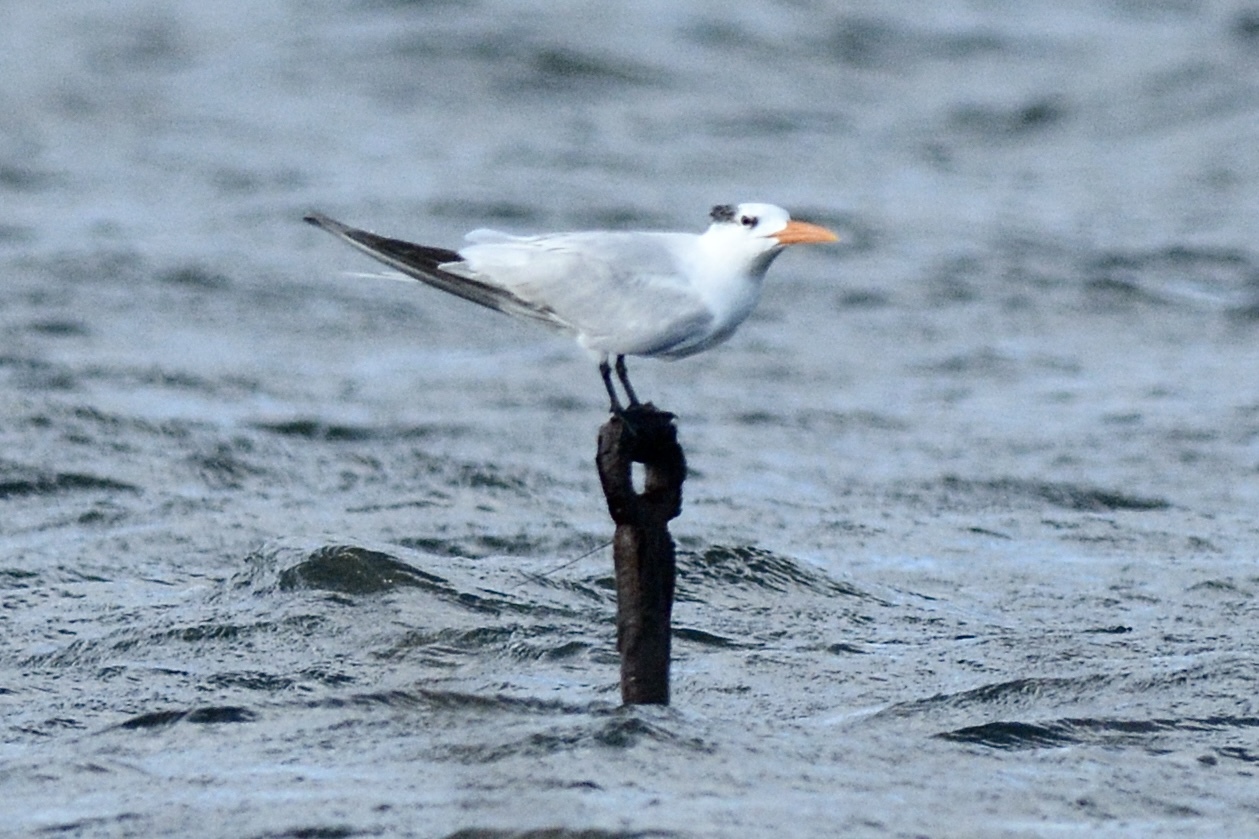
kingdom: Animalia
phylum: Chordata
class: Aves
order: Charadriiformes
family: Laridae
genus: Thalasseus
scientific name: Thalasseus maximus
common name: Royal tern
